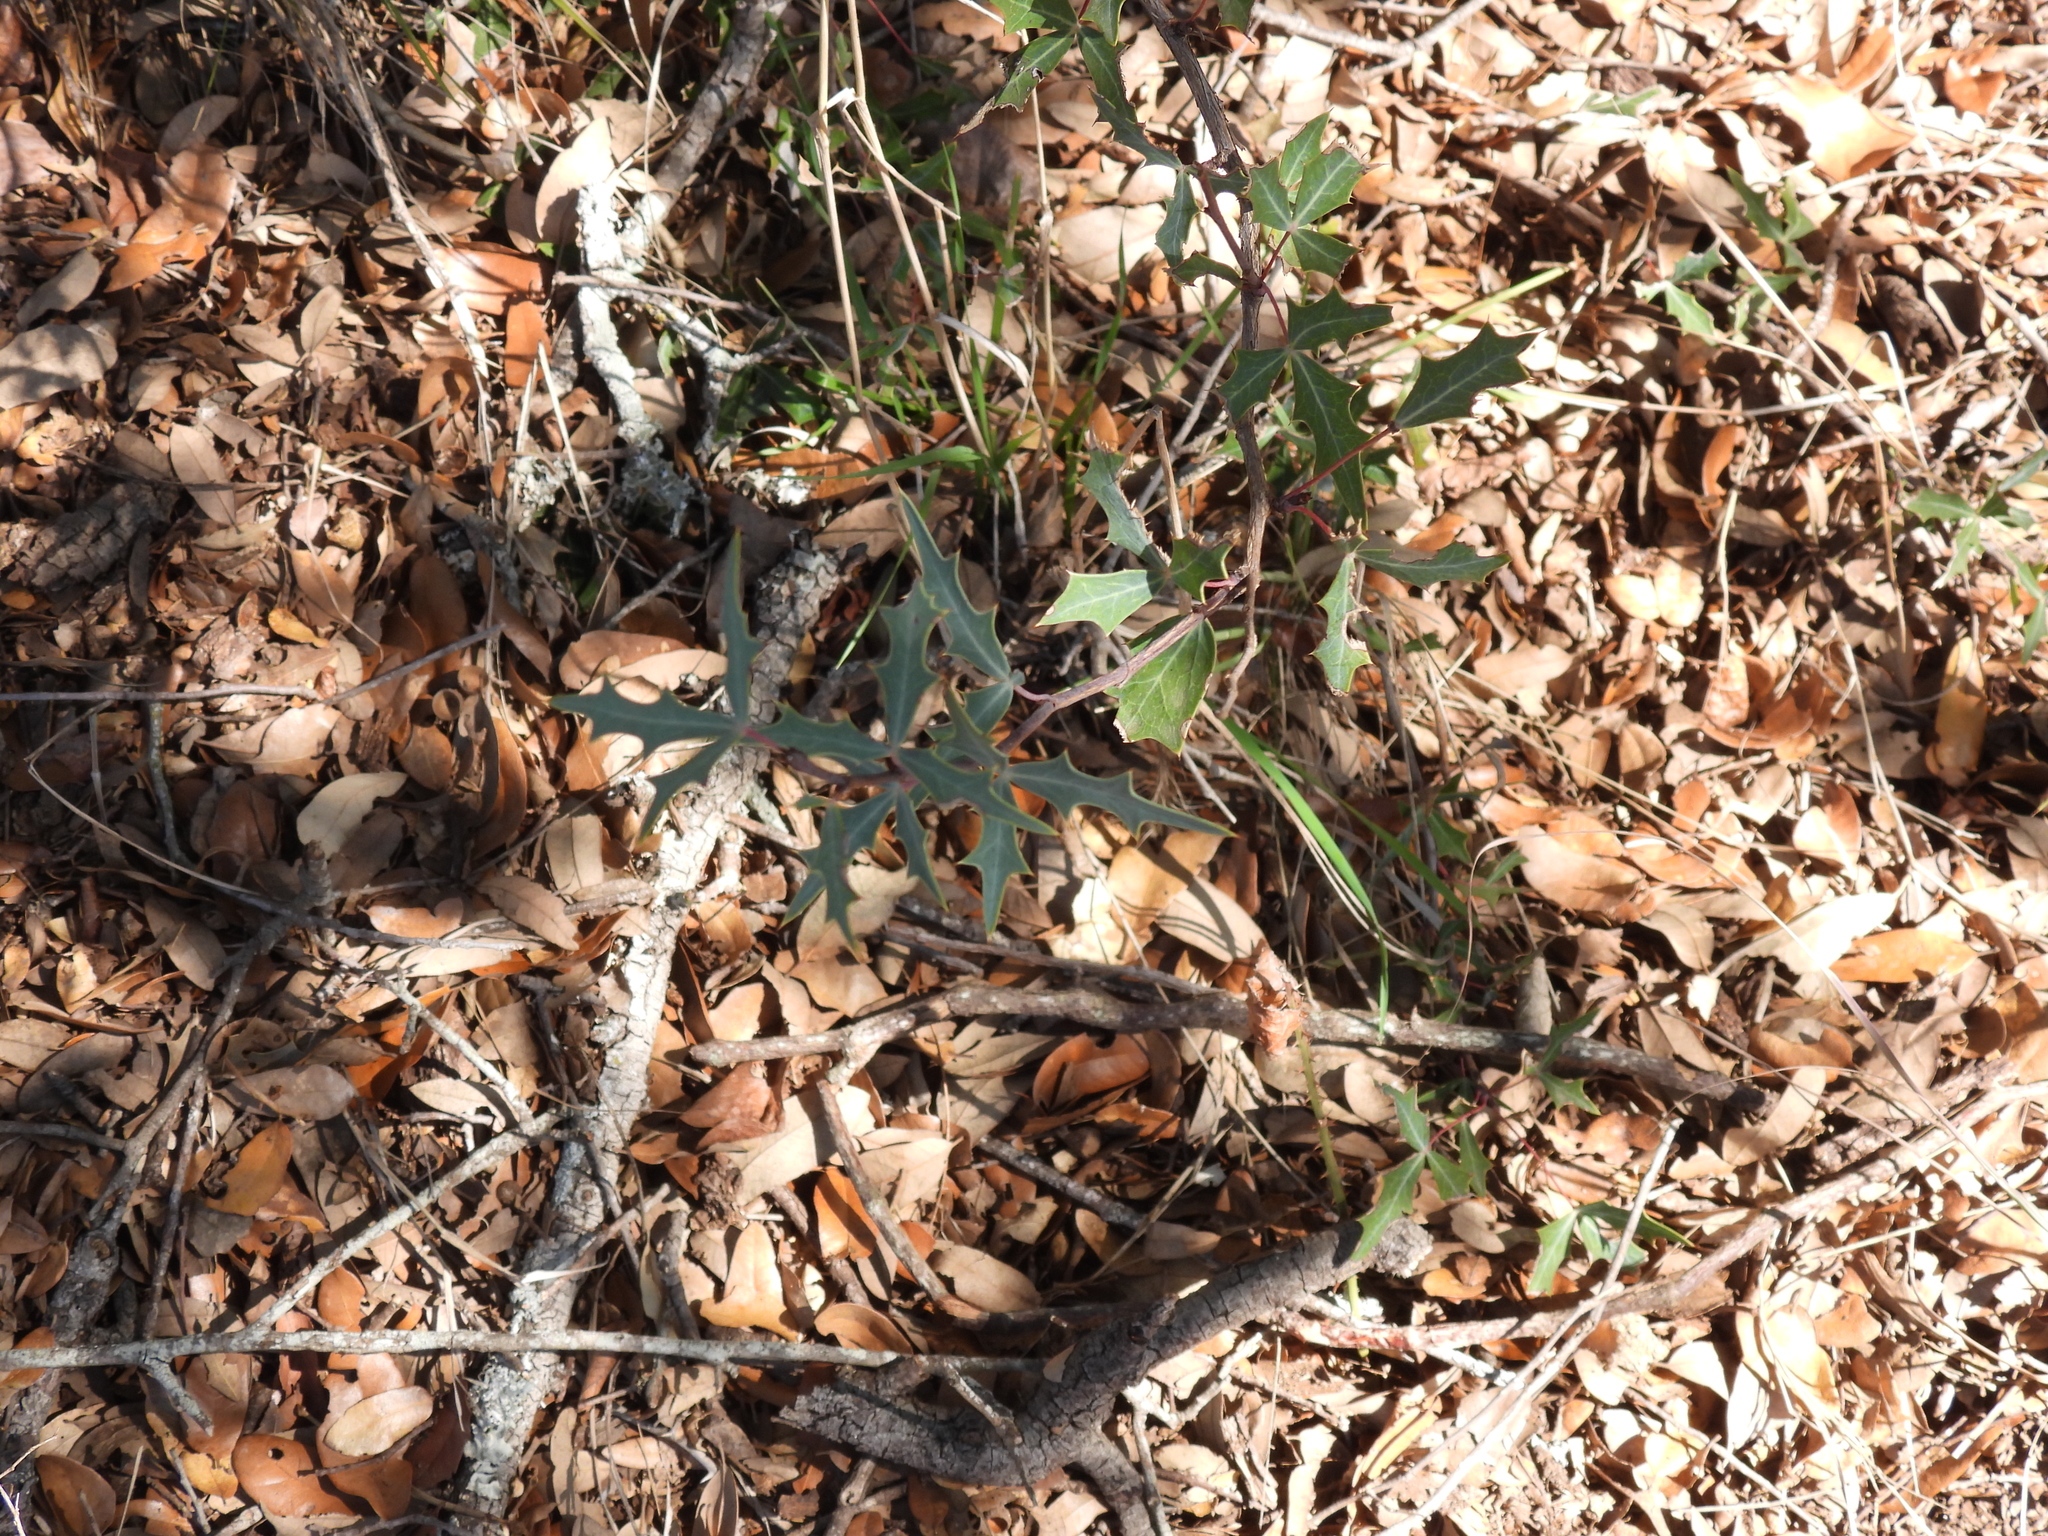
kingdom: Plantae
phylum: Tracheophyta
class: Magnoliopsida
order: Ranunculales
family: Berberidaceae
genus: Alloberberis
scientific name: Alloberberis trifoliolata
